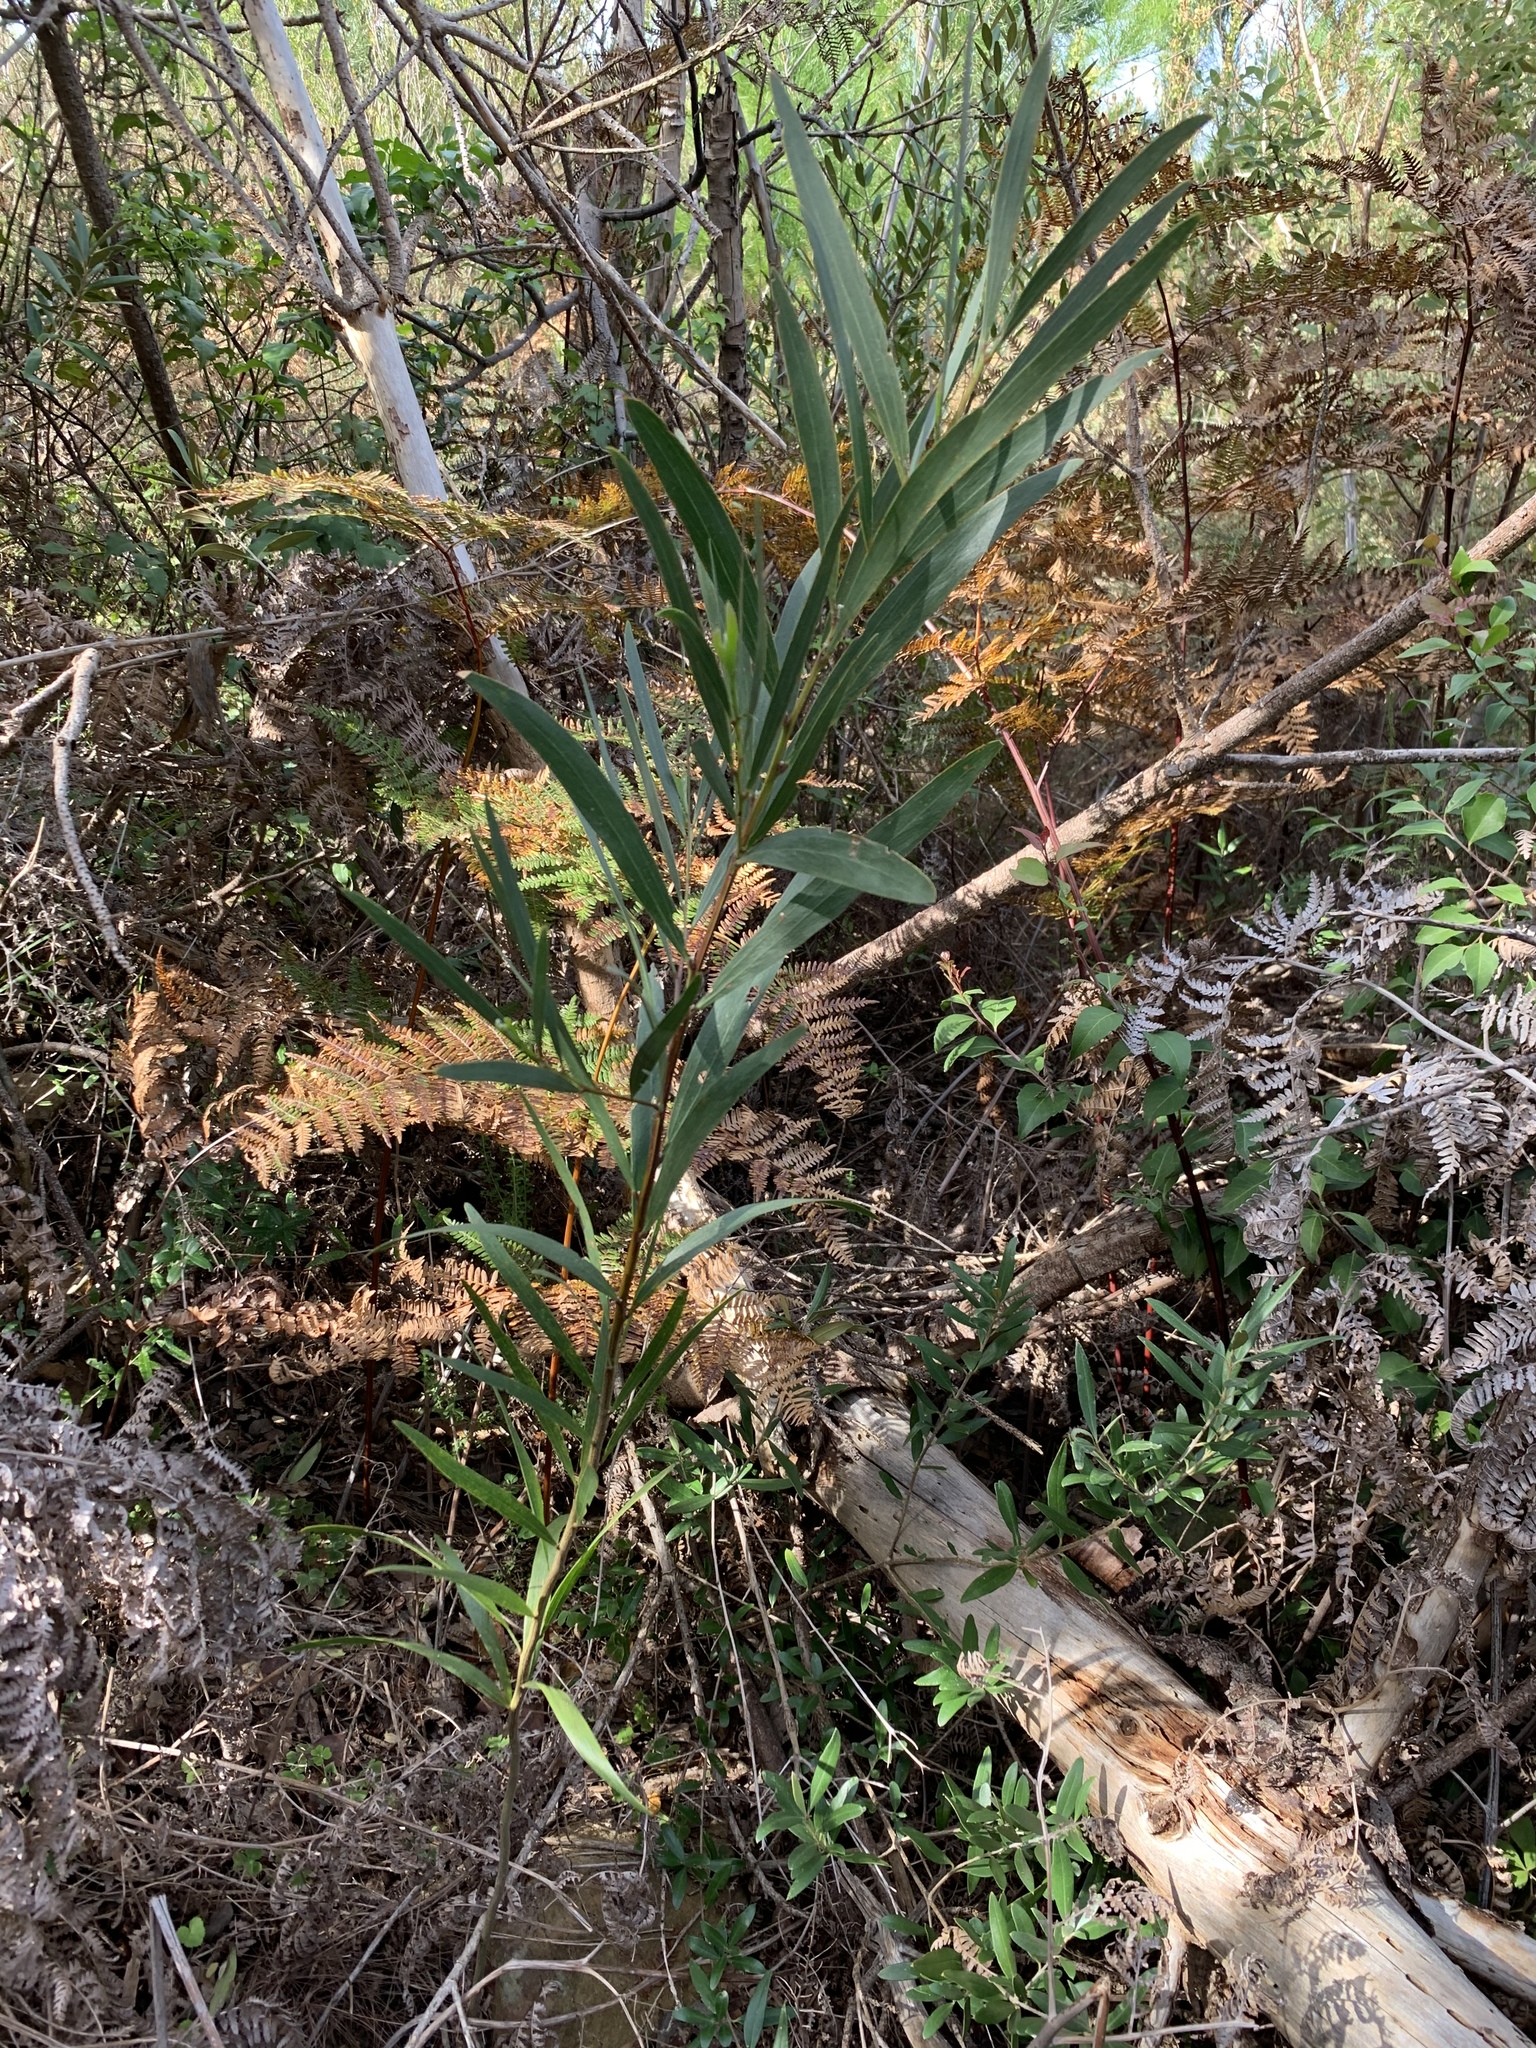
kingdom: Plantae
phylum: Tracheophyta
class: Magnoliopsida
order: Fabales
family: Fabaceae
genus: Acacia
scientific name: Acacia longifolia
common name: Sydney golden wattle
